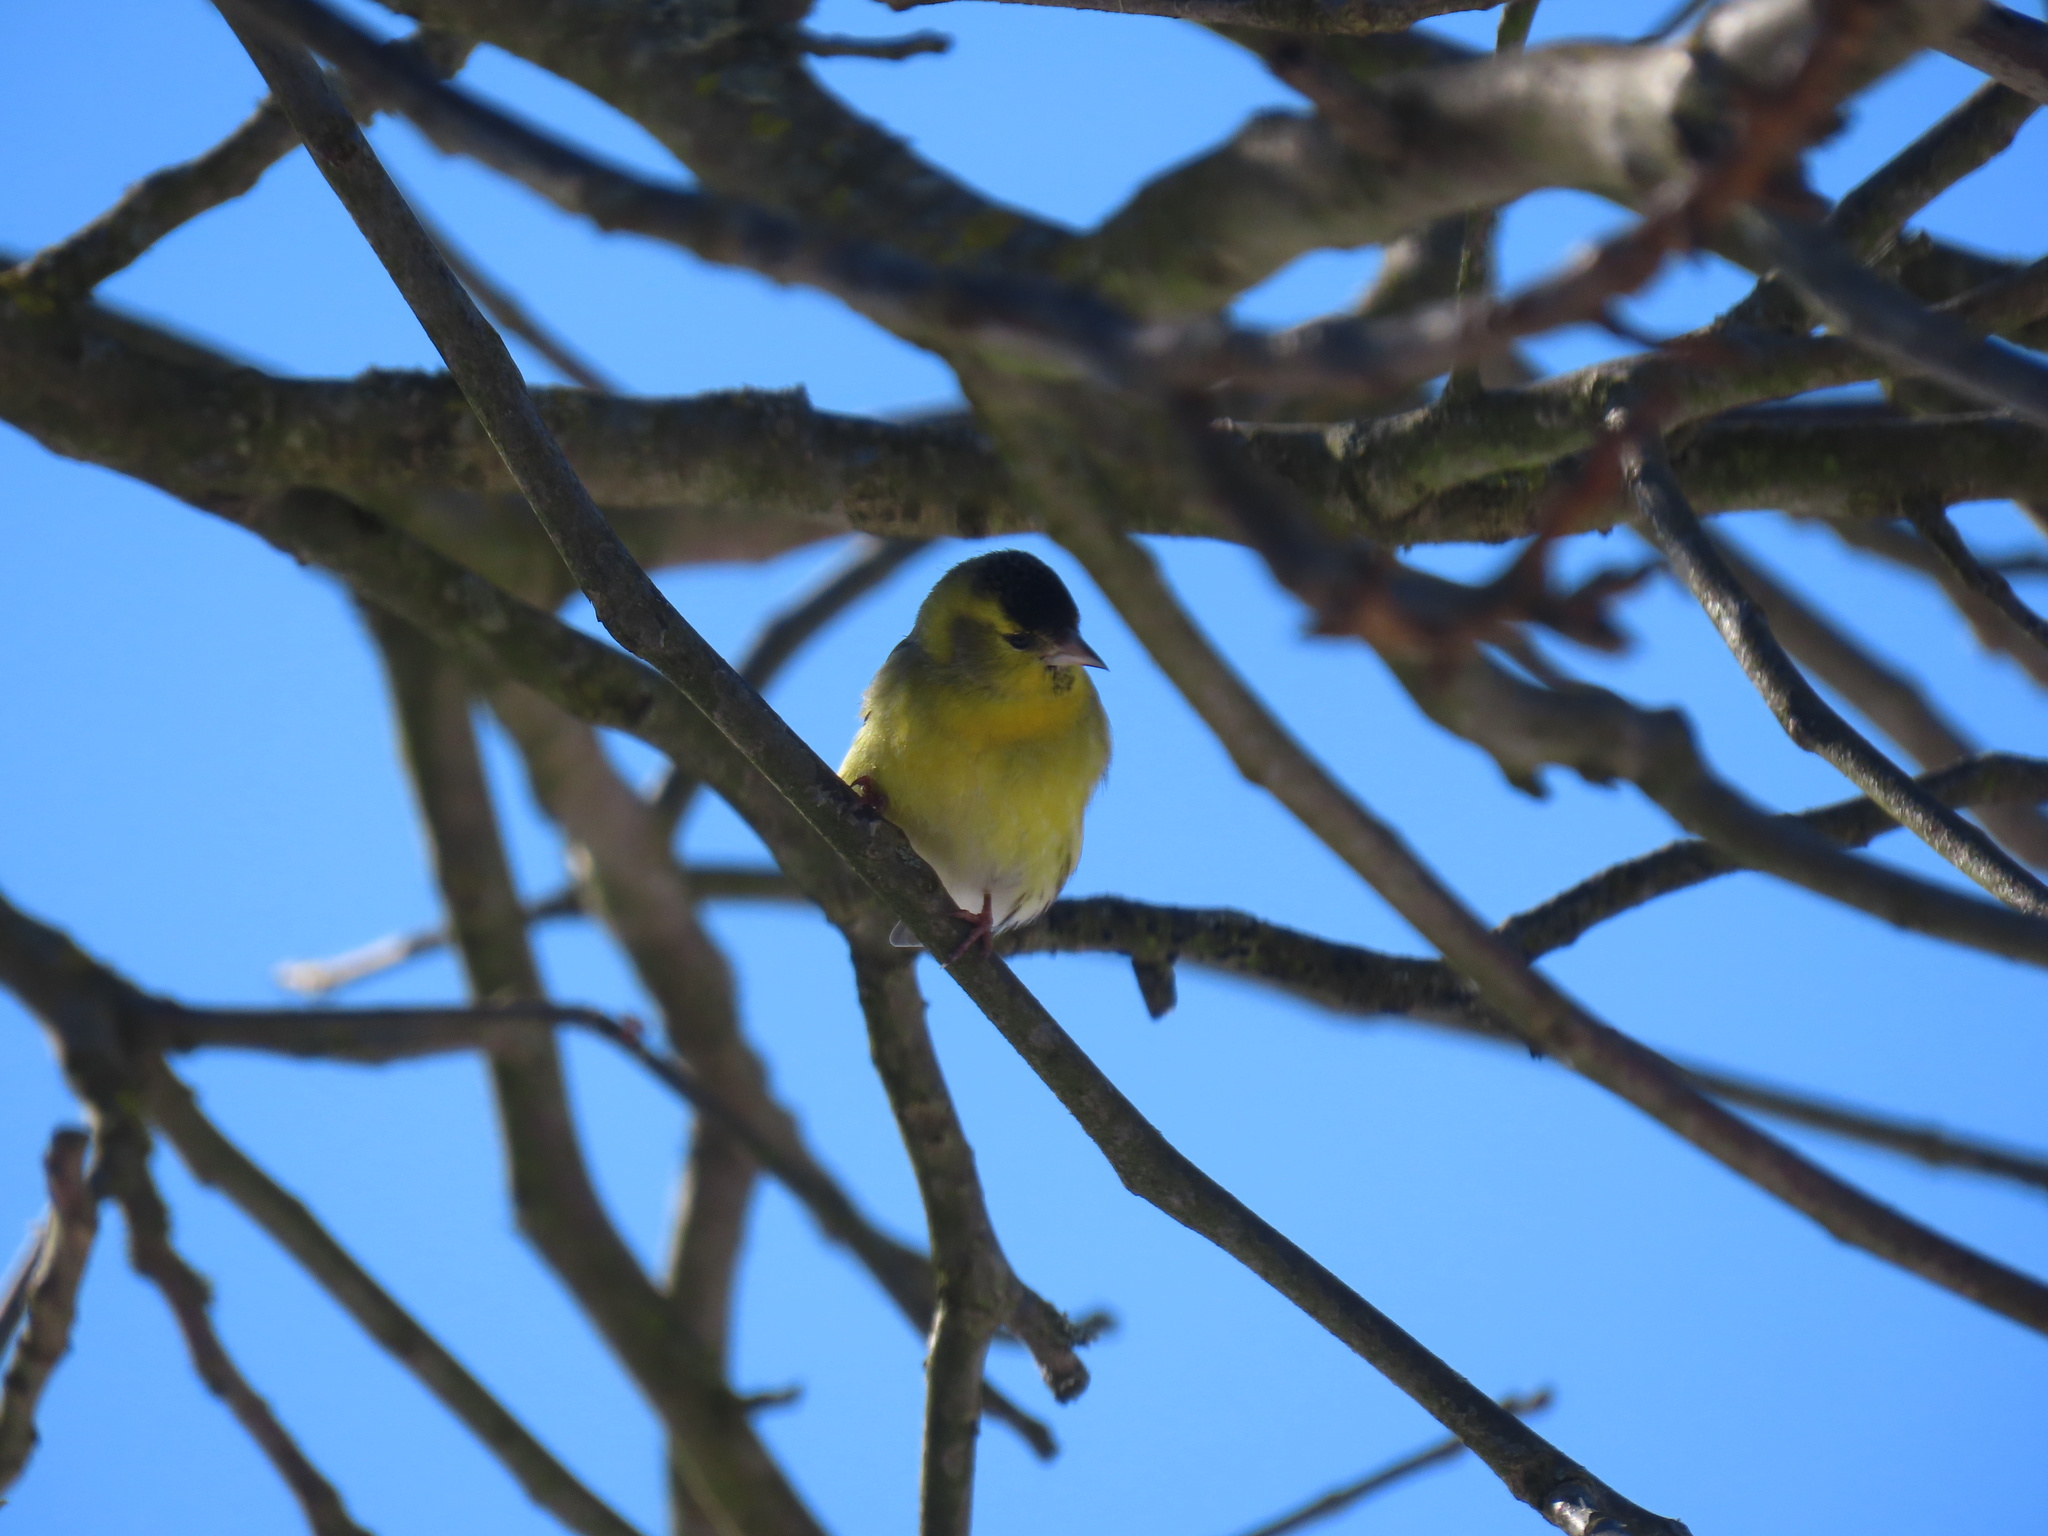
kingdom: Animalia
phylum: Chordata
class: Aves
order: Passeriformes
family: Fringillidae
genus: Spinus
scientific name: Spinus spinus
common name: Eurasian siskin
